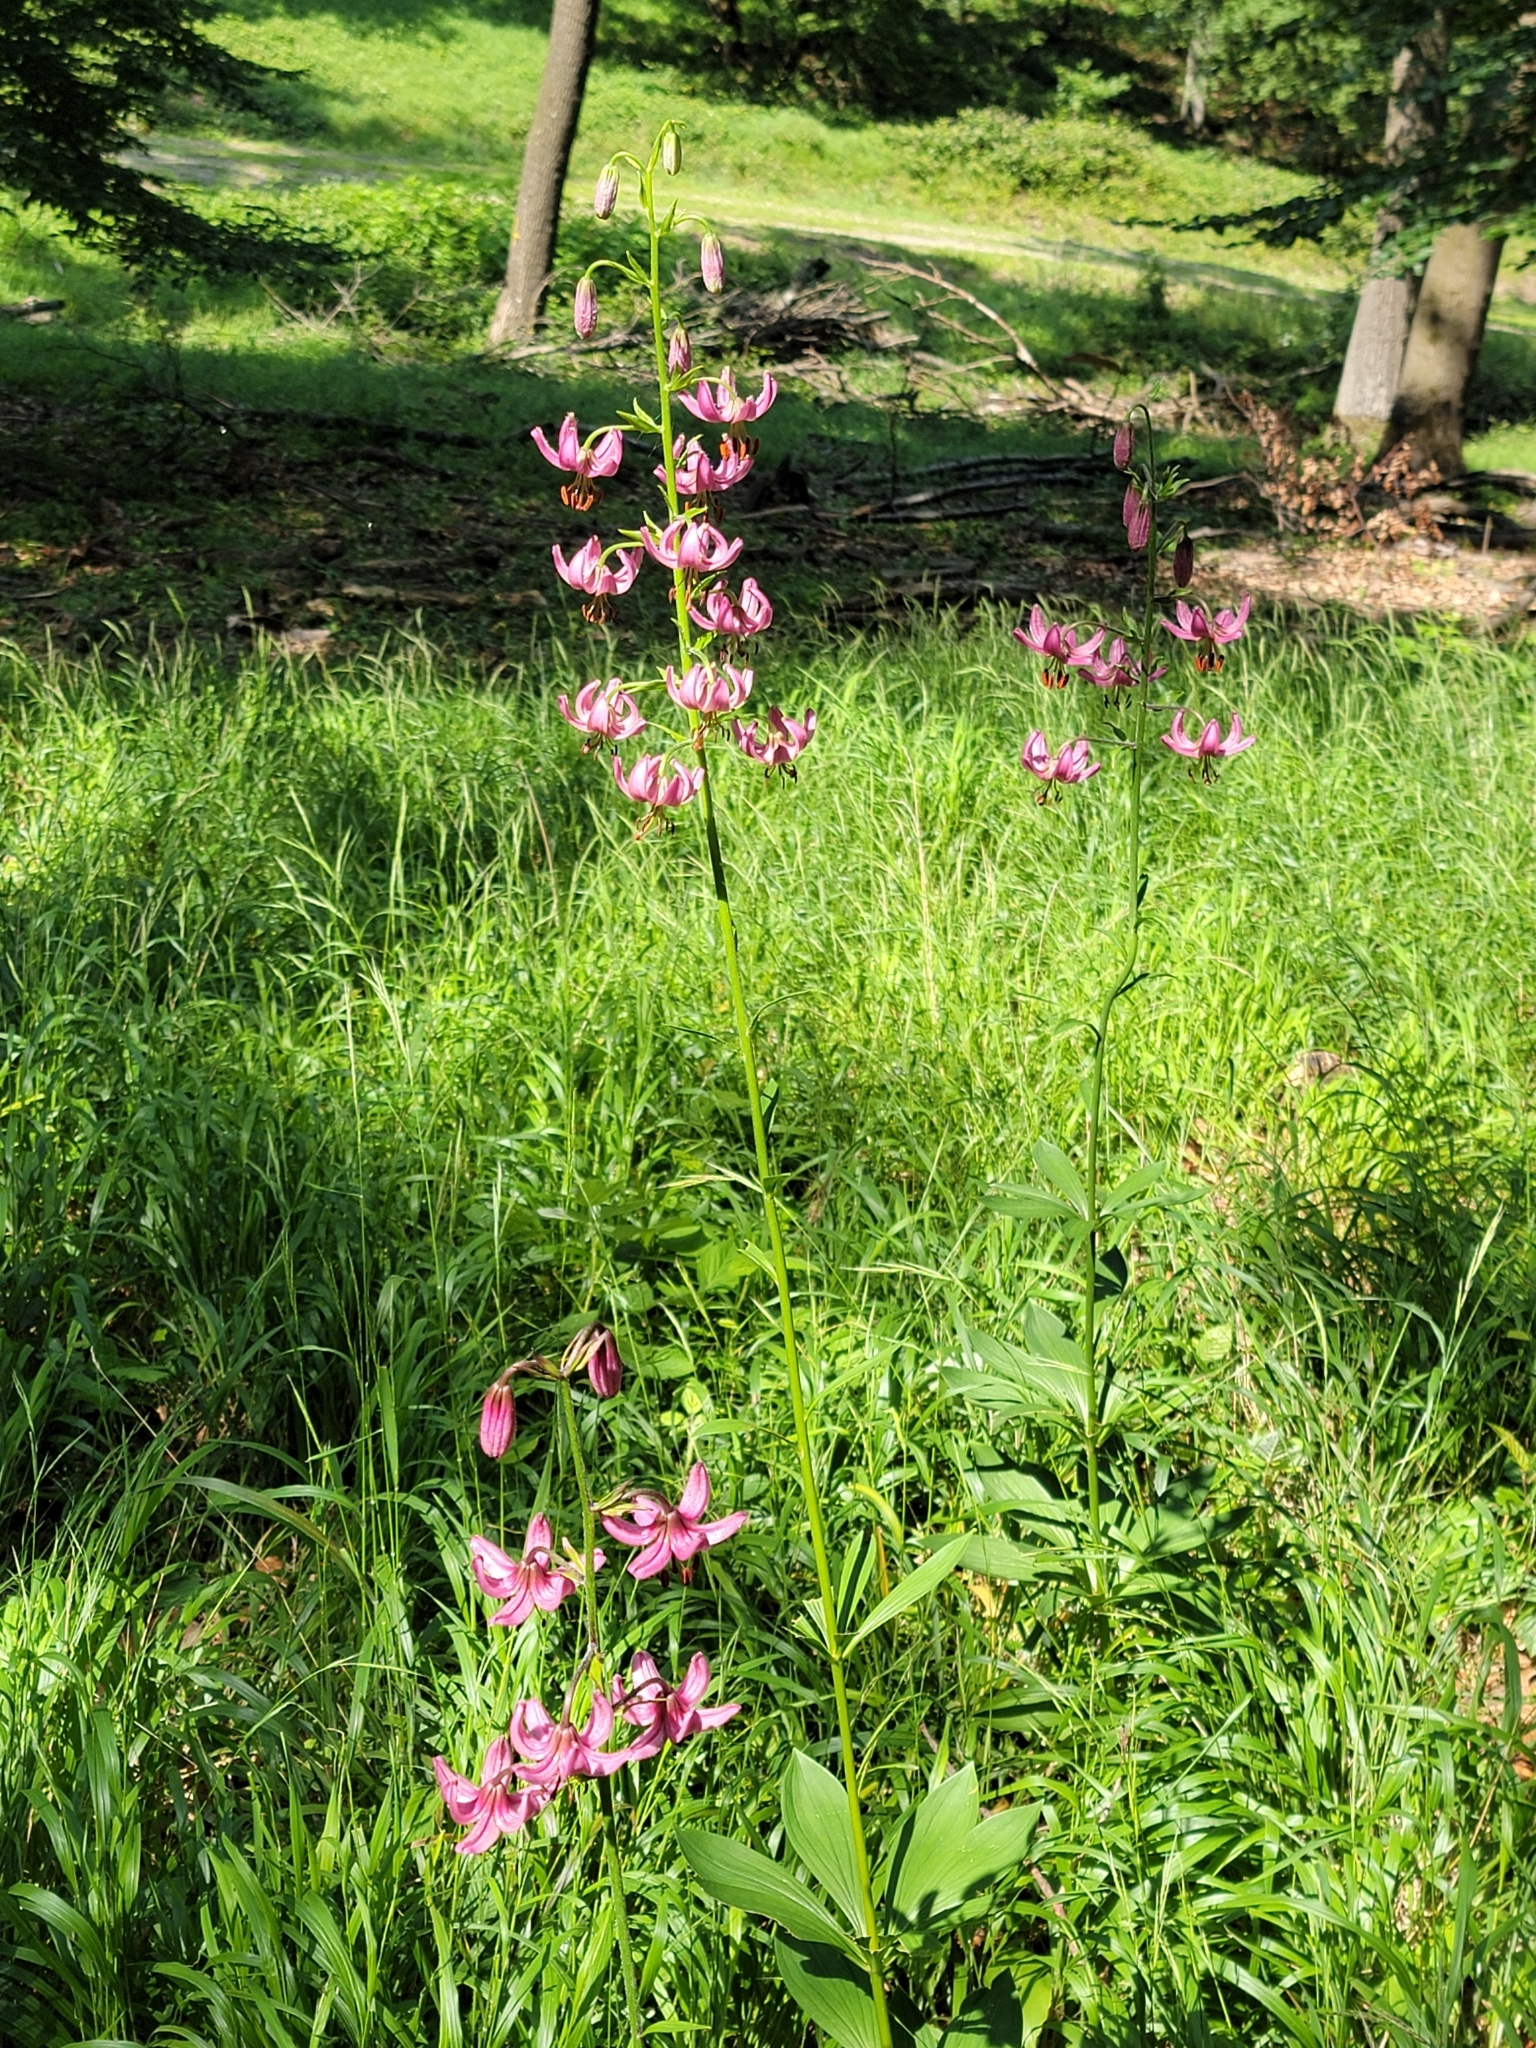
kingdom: Plantae
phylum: Tracheophyta
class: Liliopsida
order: Liliales
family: Liliaceae
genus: Lilium
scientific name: Lilium martagon
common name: Martagon lily
